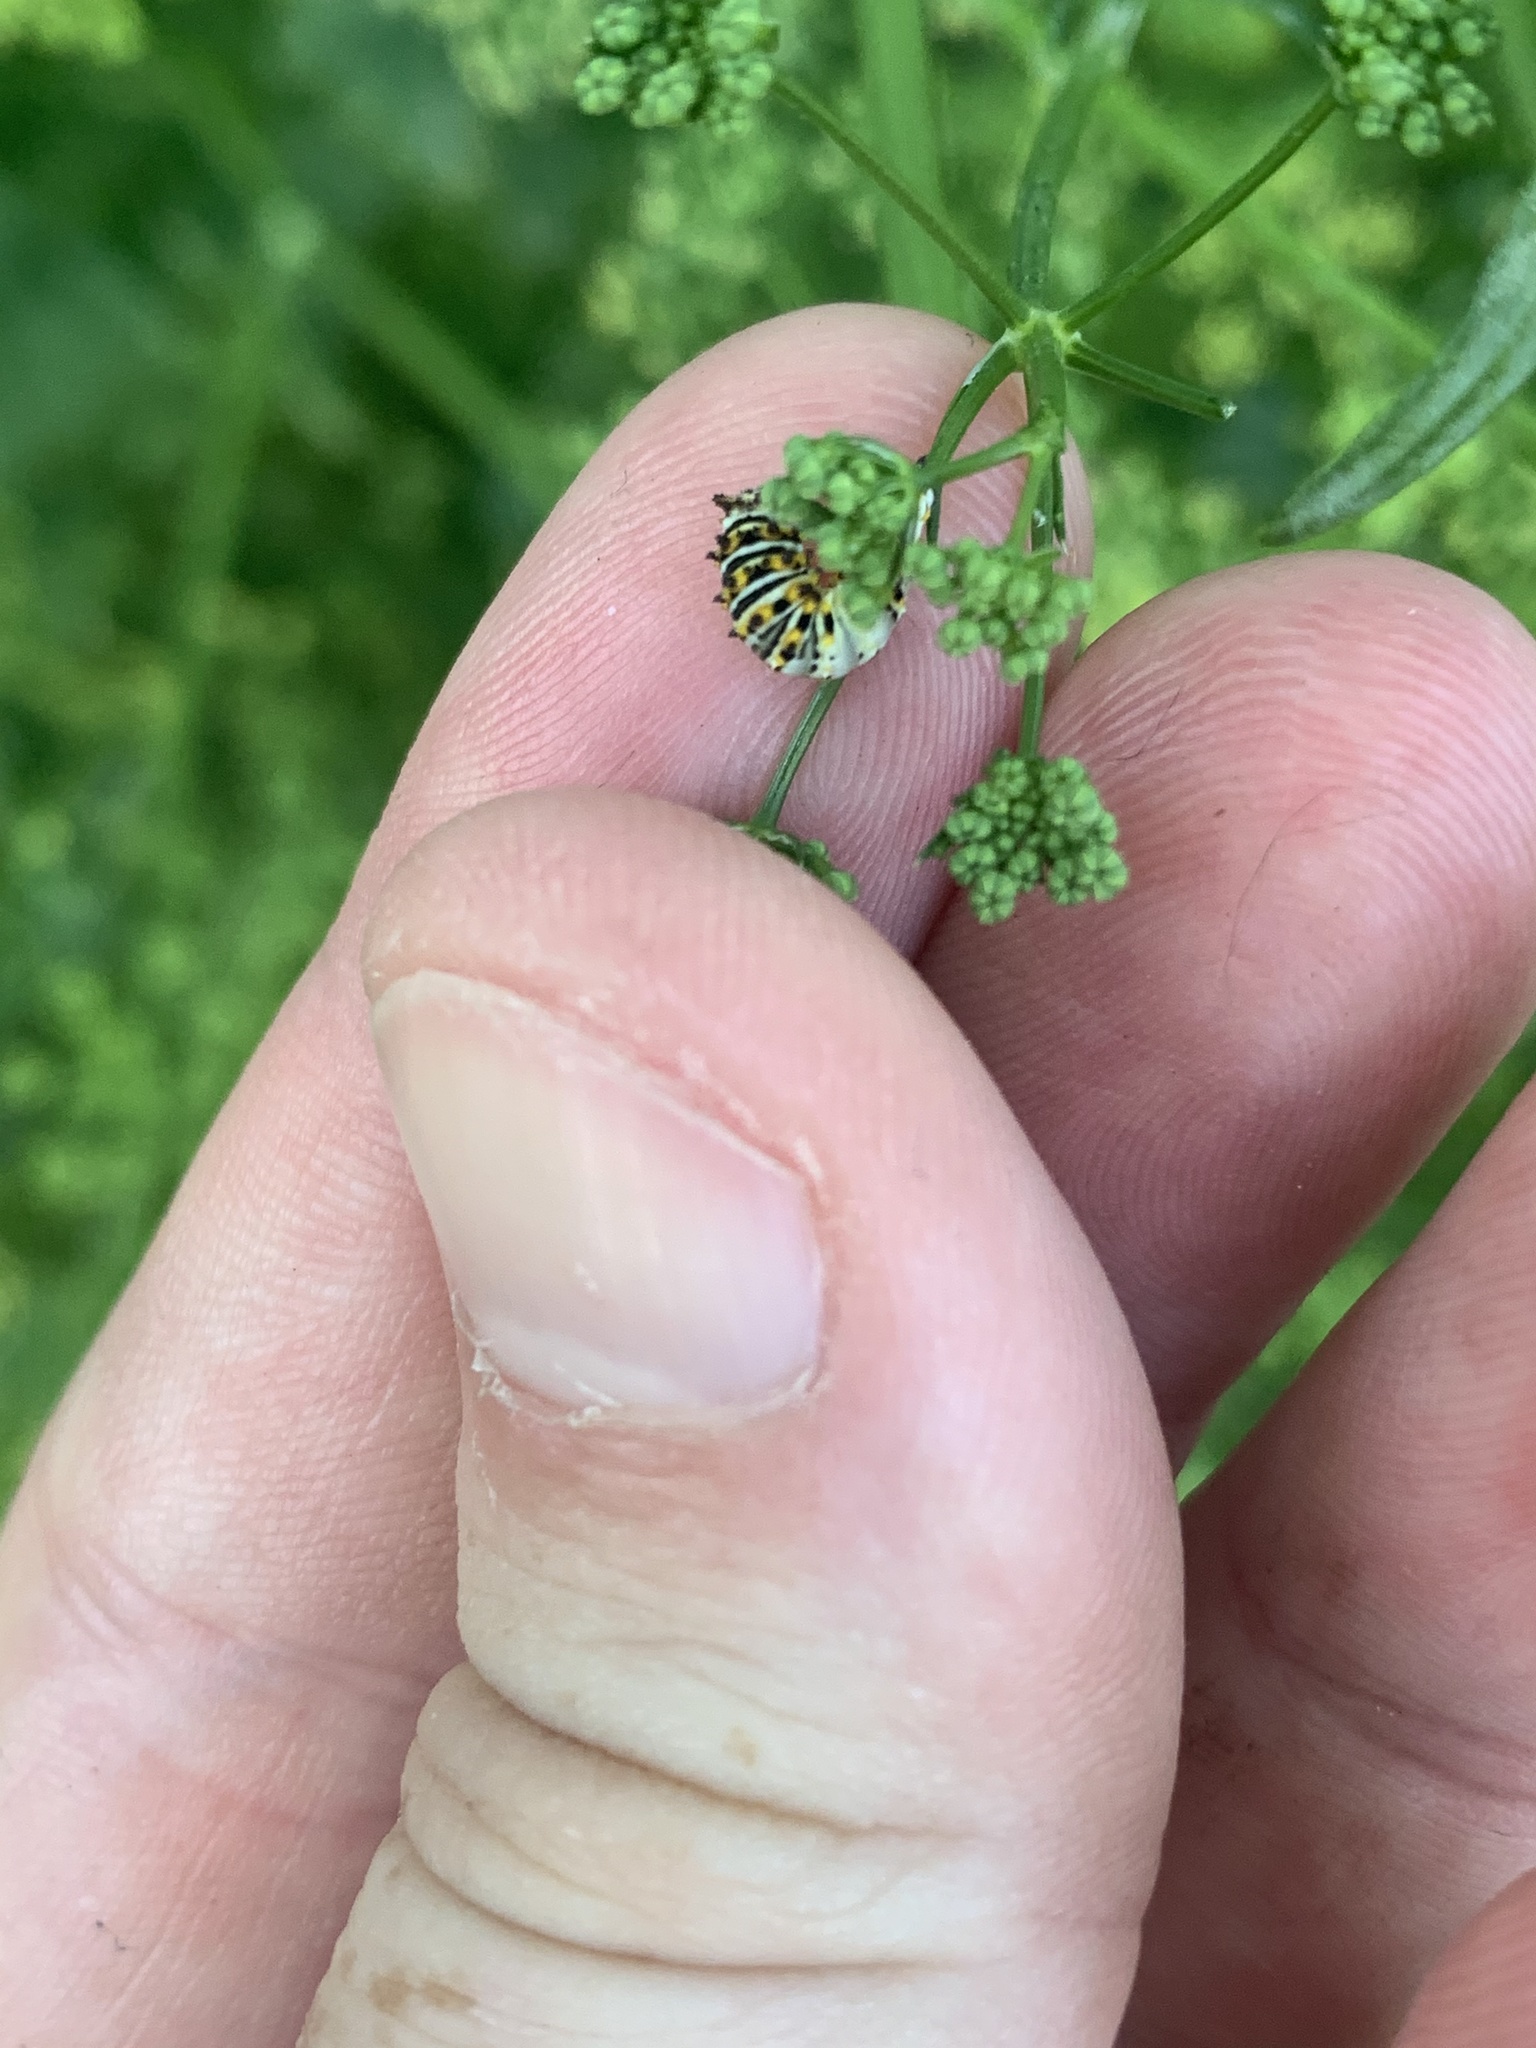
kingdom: Animalia
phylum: Arthropoda
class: Insecta
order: Lepidoptera
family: Papilionidae
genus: Papilio
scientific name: Papilio polyxenes
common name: Black swallowtail
